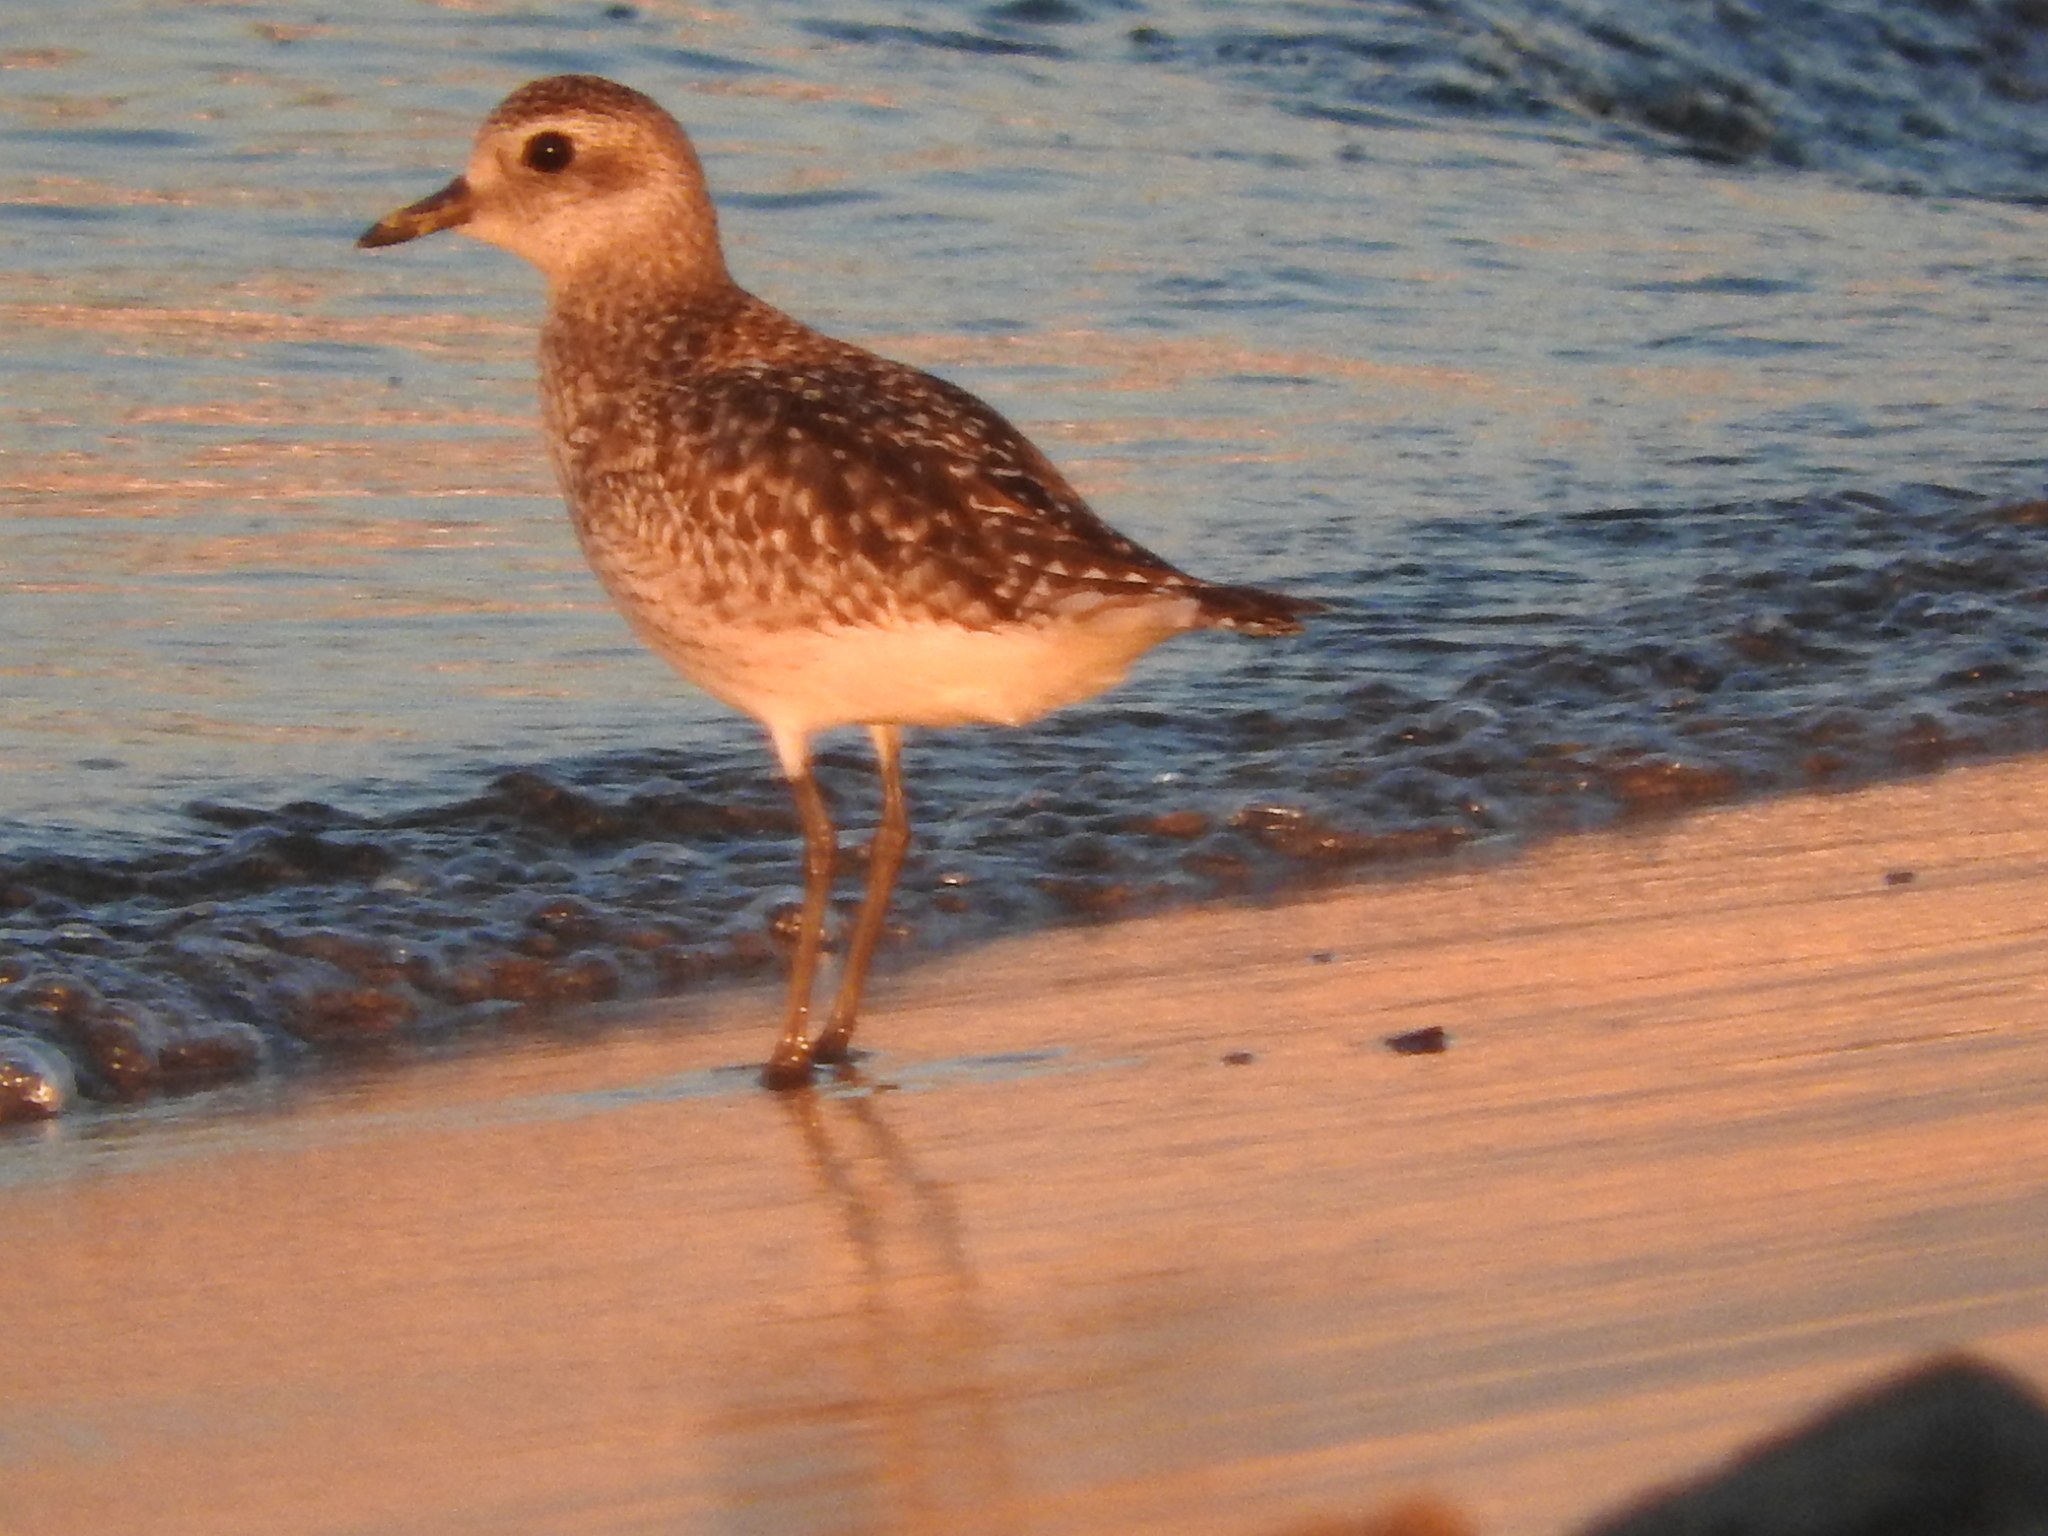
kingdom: Animalia
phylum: Chordata
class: Aves
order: Charadriiformes
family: Charadriidae
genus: Pluvialis
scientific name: Pluvialis squatarola
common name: Grey plover
